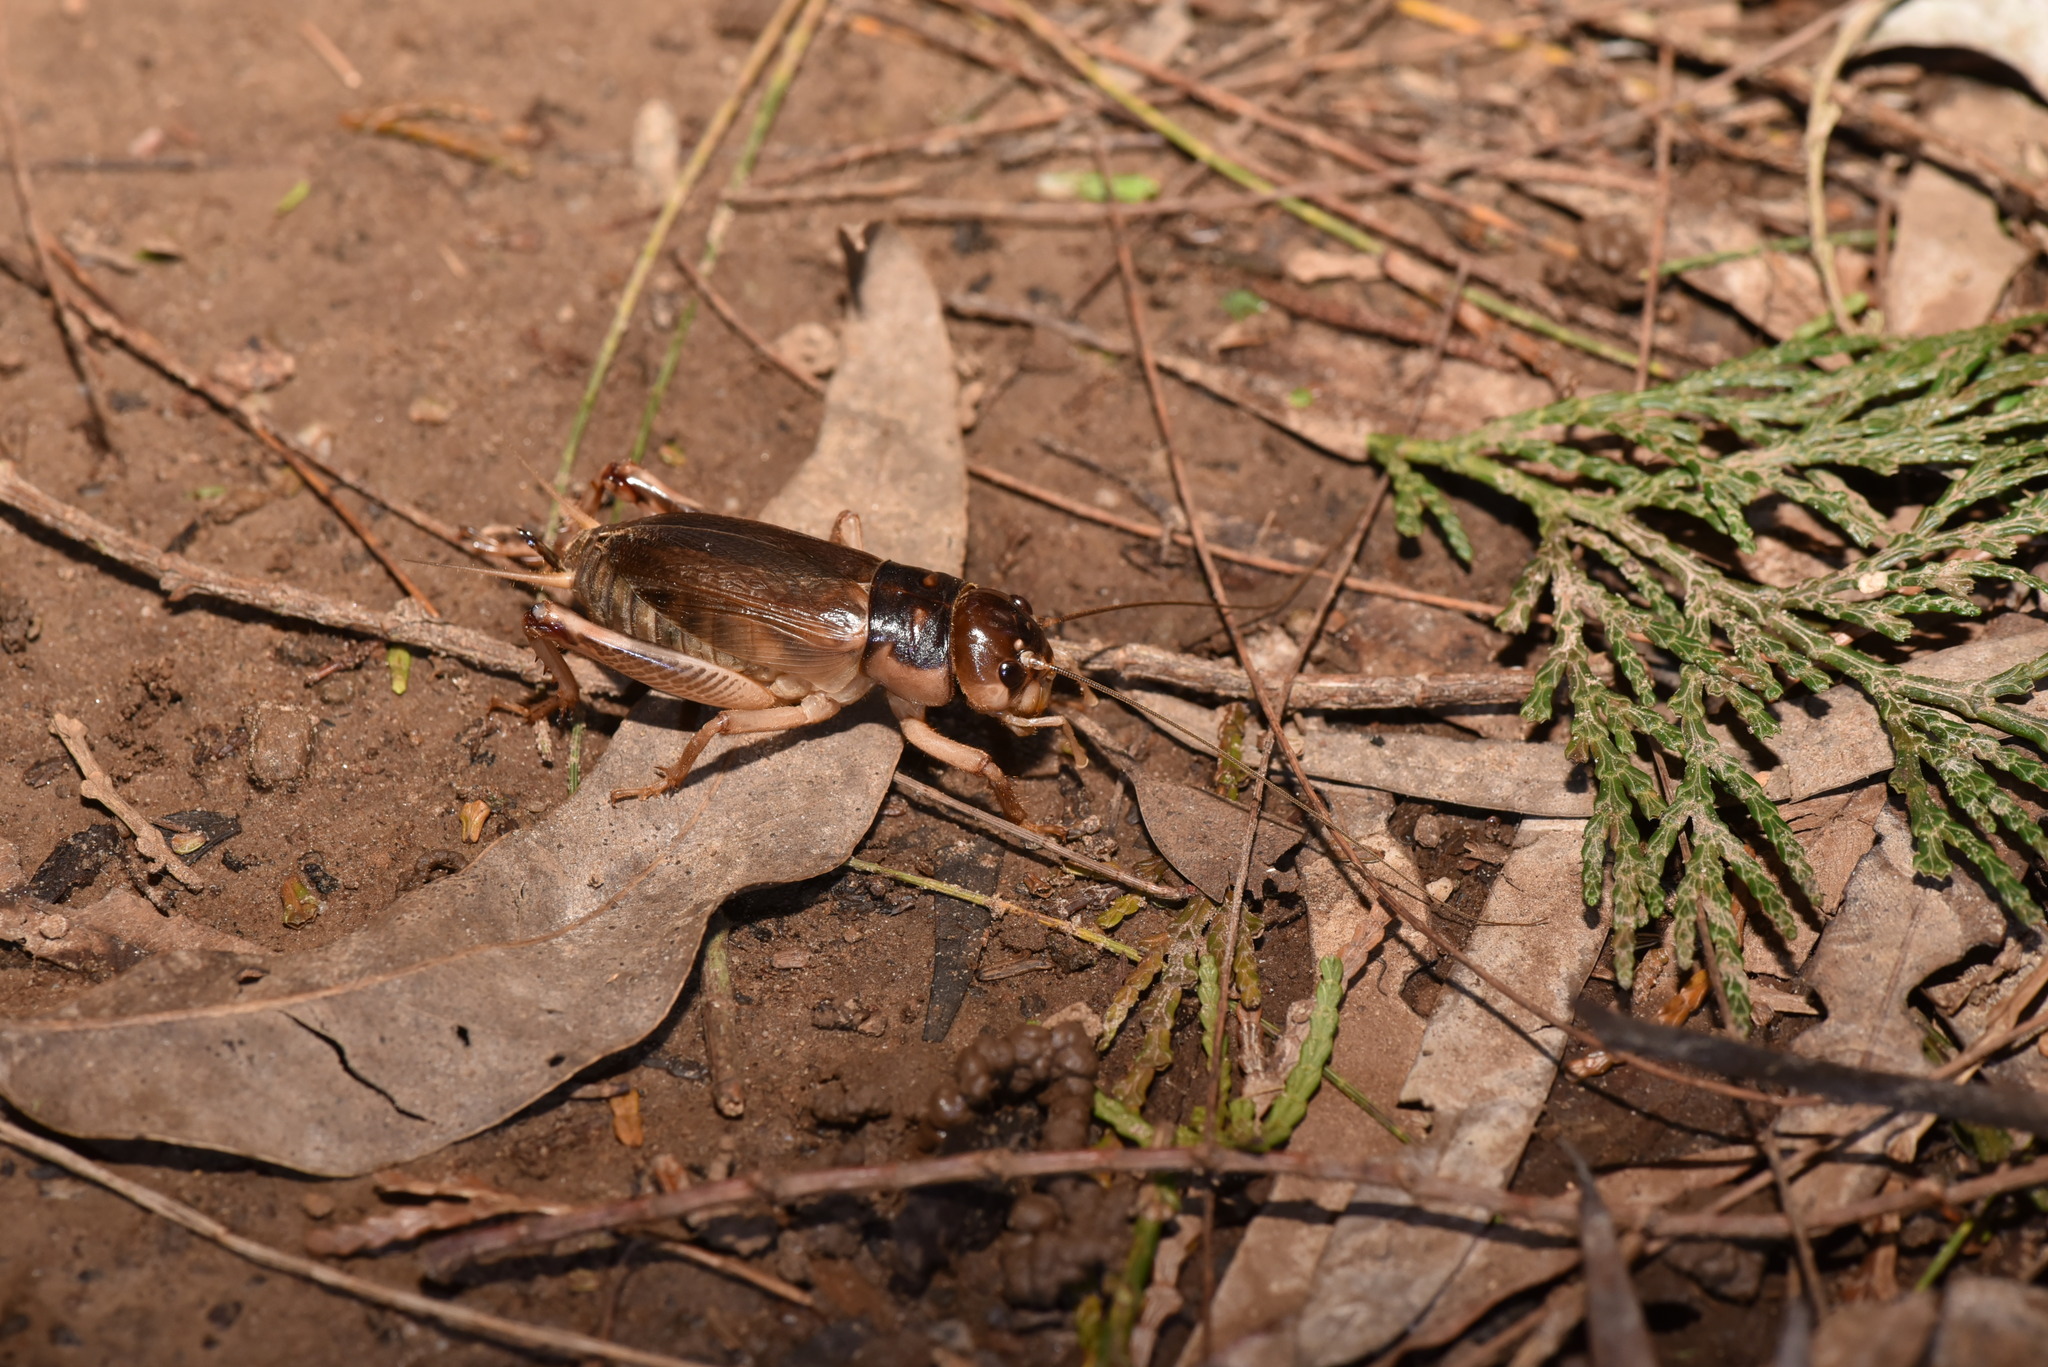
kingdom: Animalia
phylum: Arthropoda
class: Insecta
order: Orthoptera
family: Gryllidae
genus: Tarbinskiellus
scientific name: Tarbinskiellus portentosus
